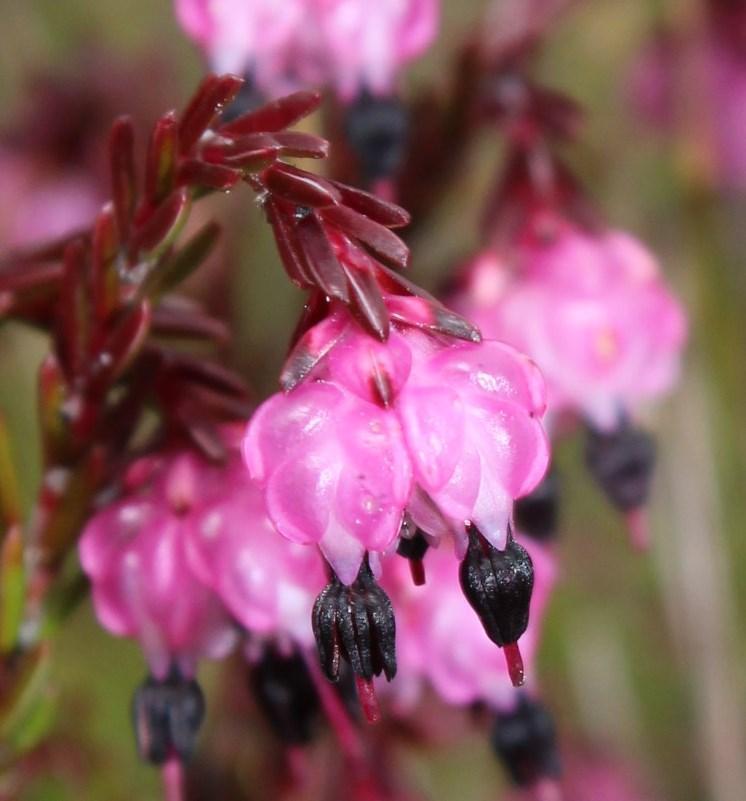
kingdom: Plantae
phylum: Tracheophyta
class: Magnoliopsida
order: Ericales
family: Ericaceae
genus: Erica
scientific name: Erica spumosa
